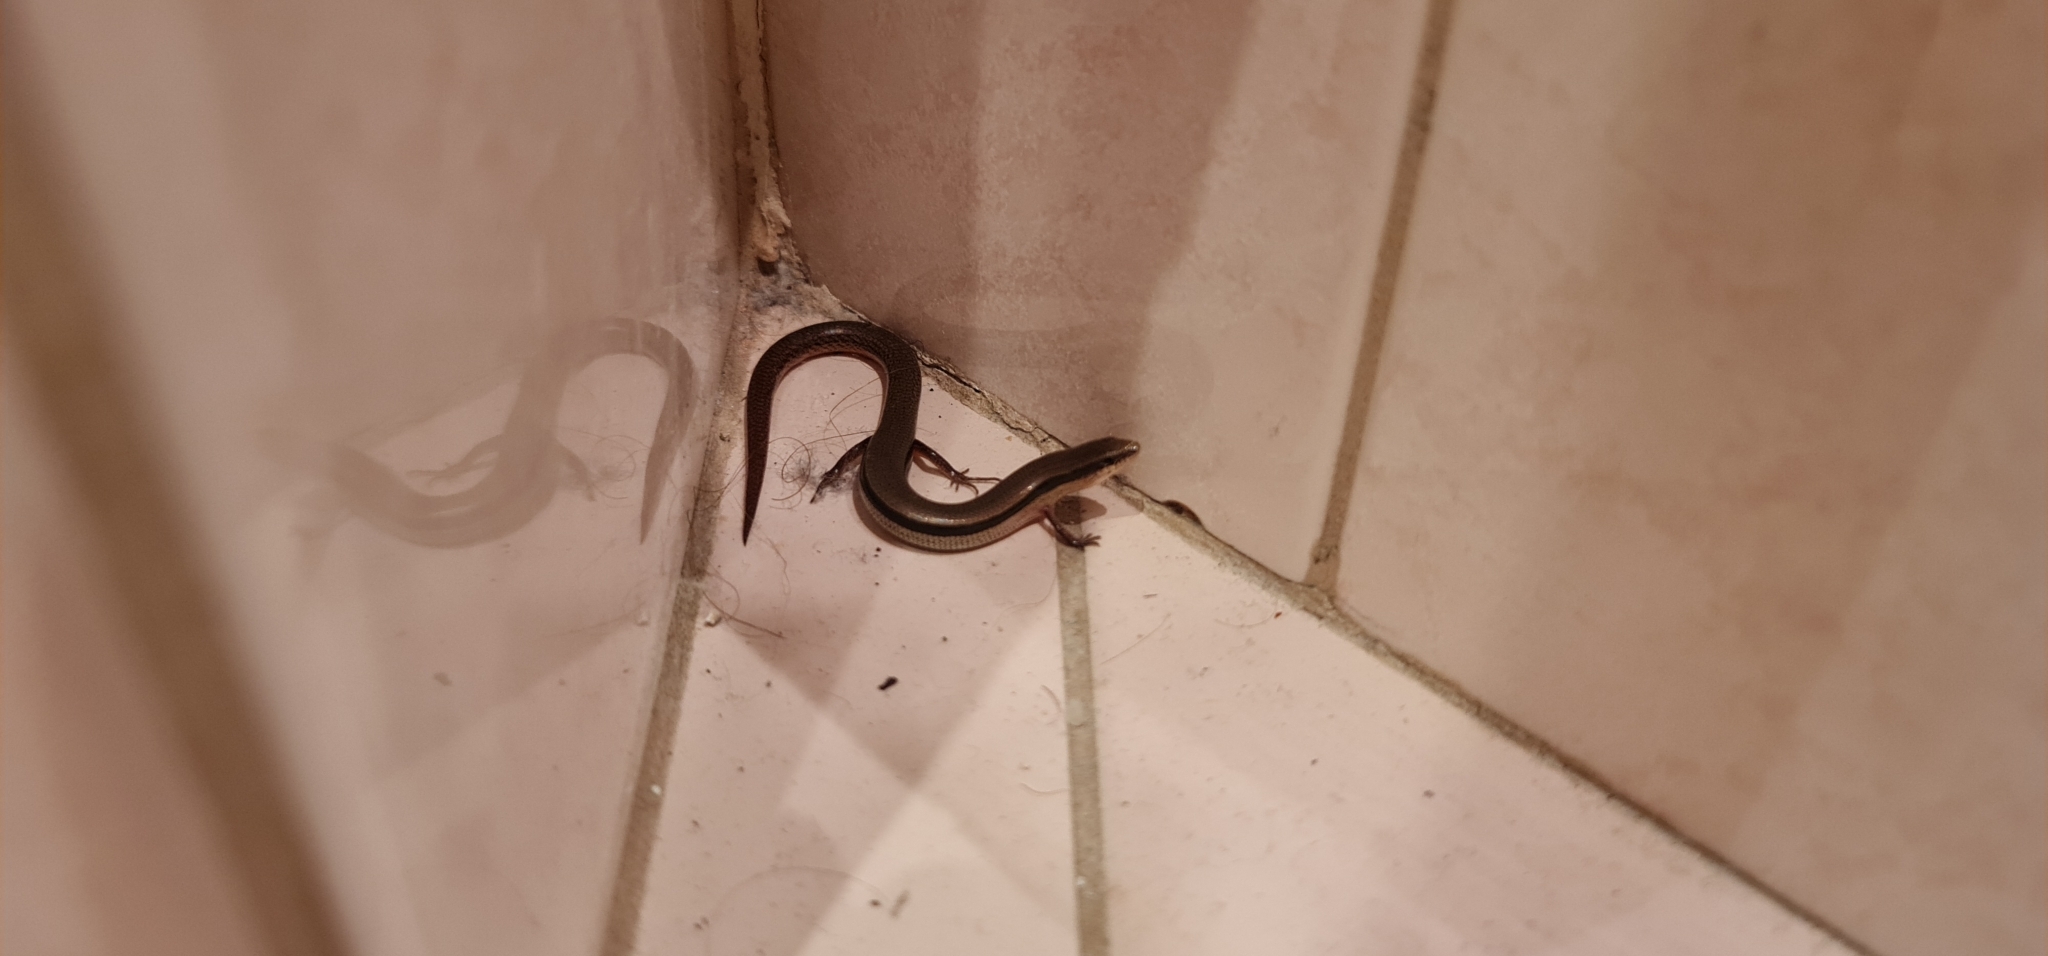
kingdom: Animalia
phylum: Chordata
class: Squamata
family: Scincidae
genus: Lerista
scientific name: Lerista bougainvillii
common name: South-eastern slider
